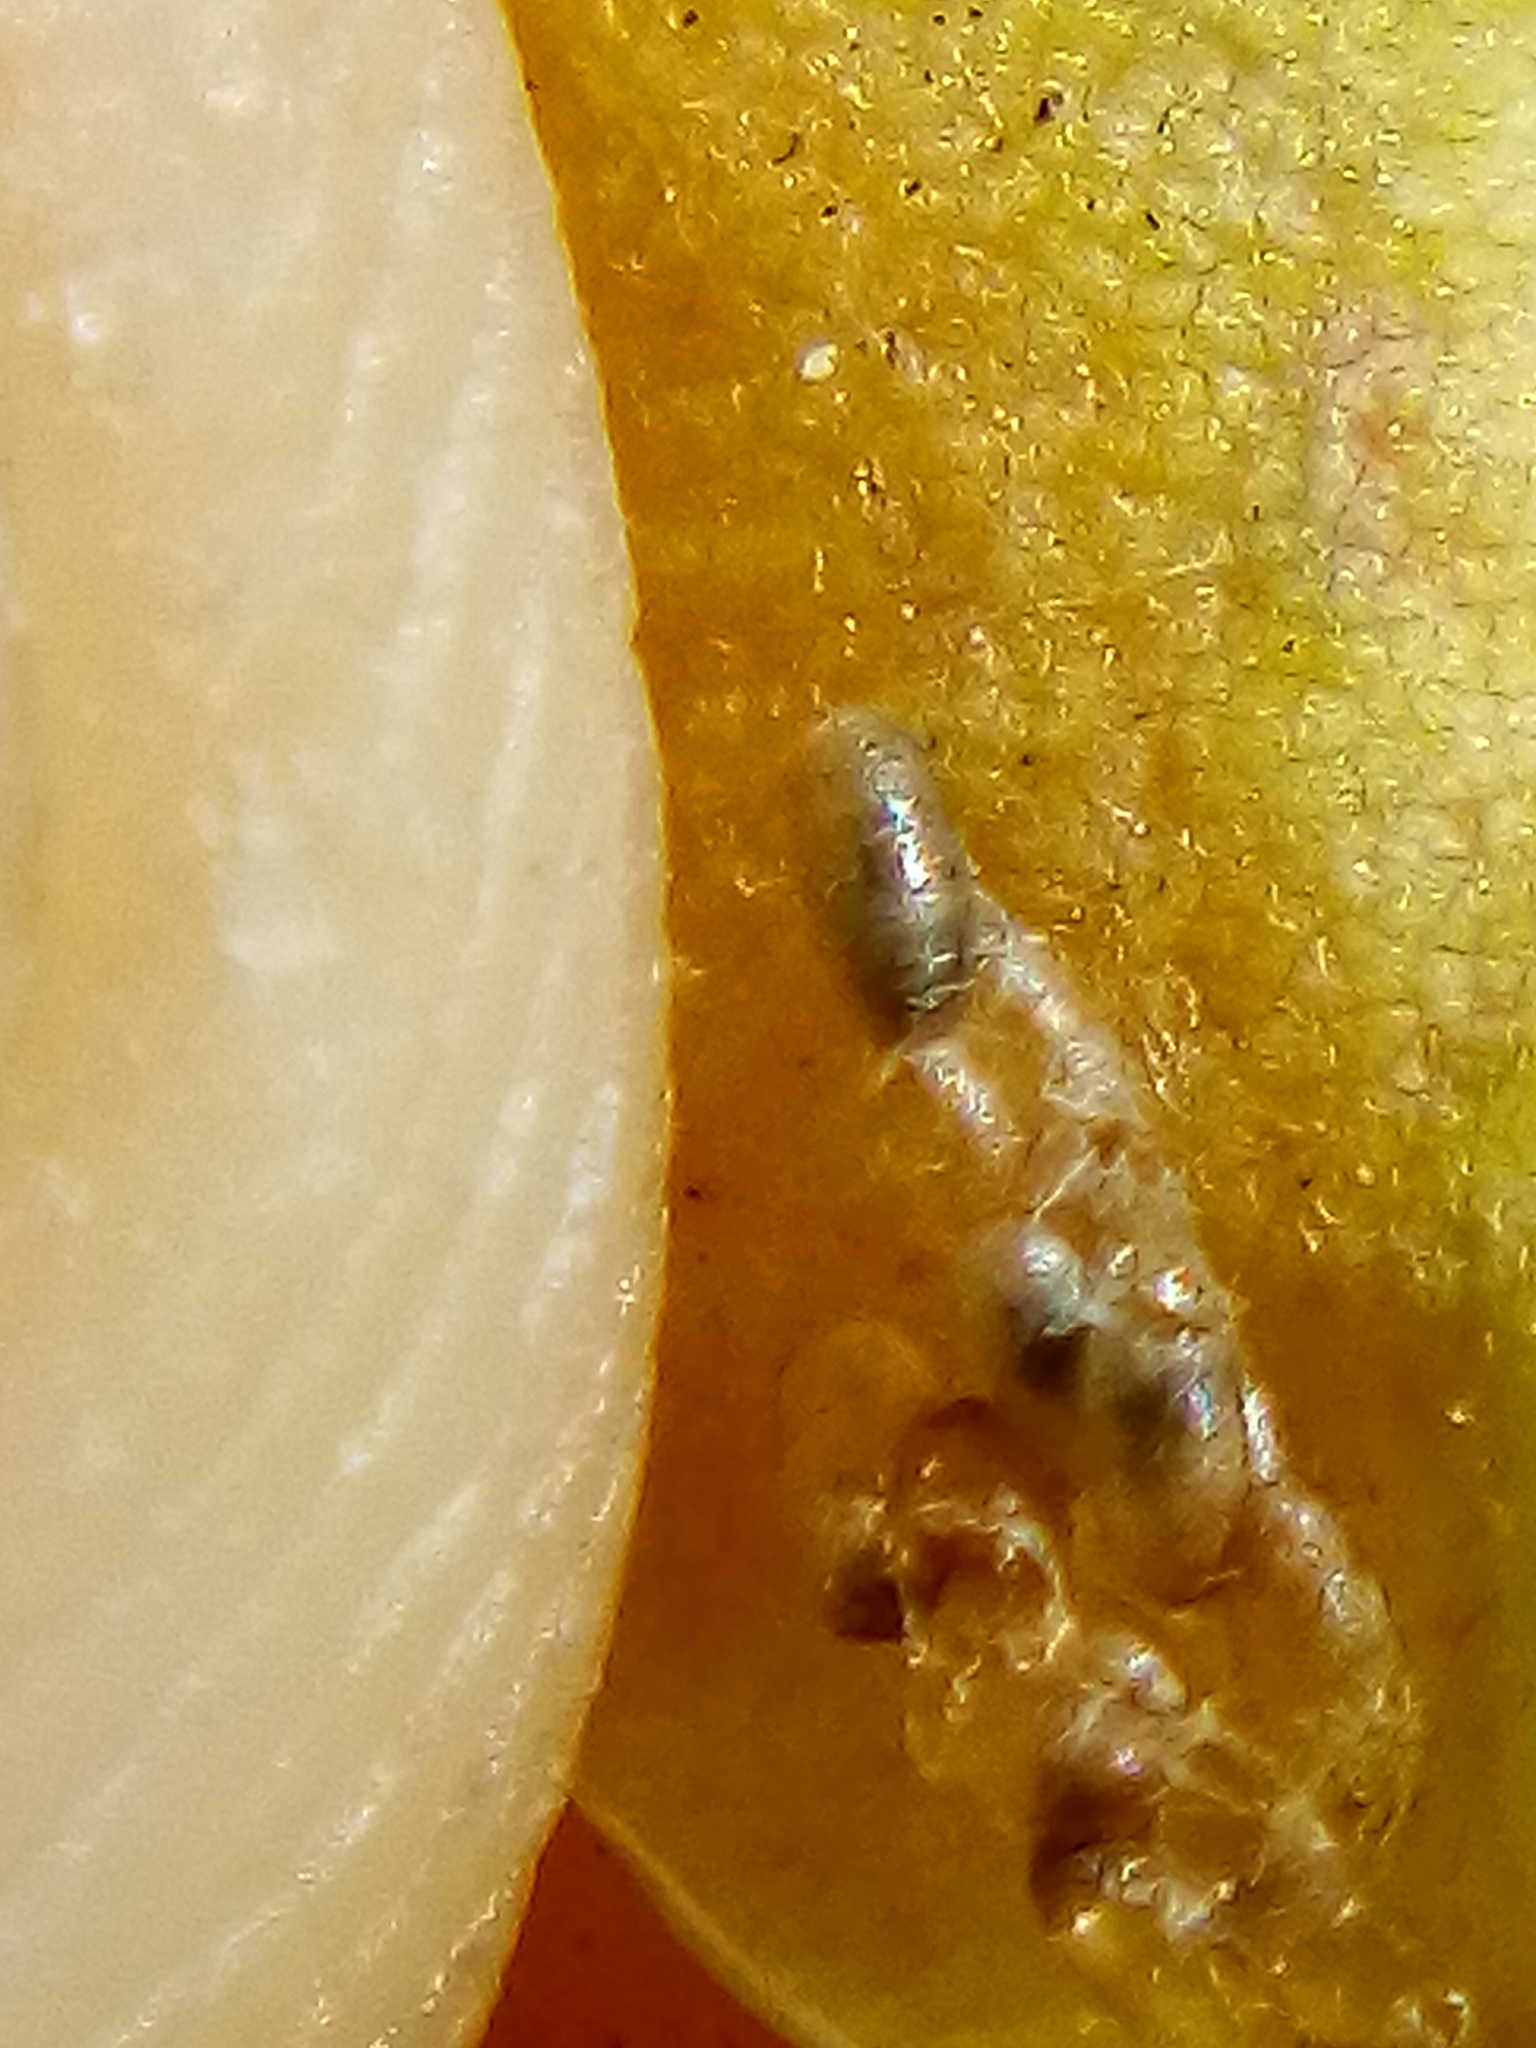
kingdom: Animalia
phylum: Arthropoda
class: Insecta
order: Hymenoptera
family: Platygastridae
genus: Platygaster
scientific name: Platygaster robiniae
